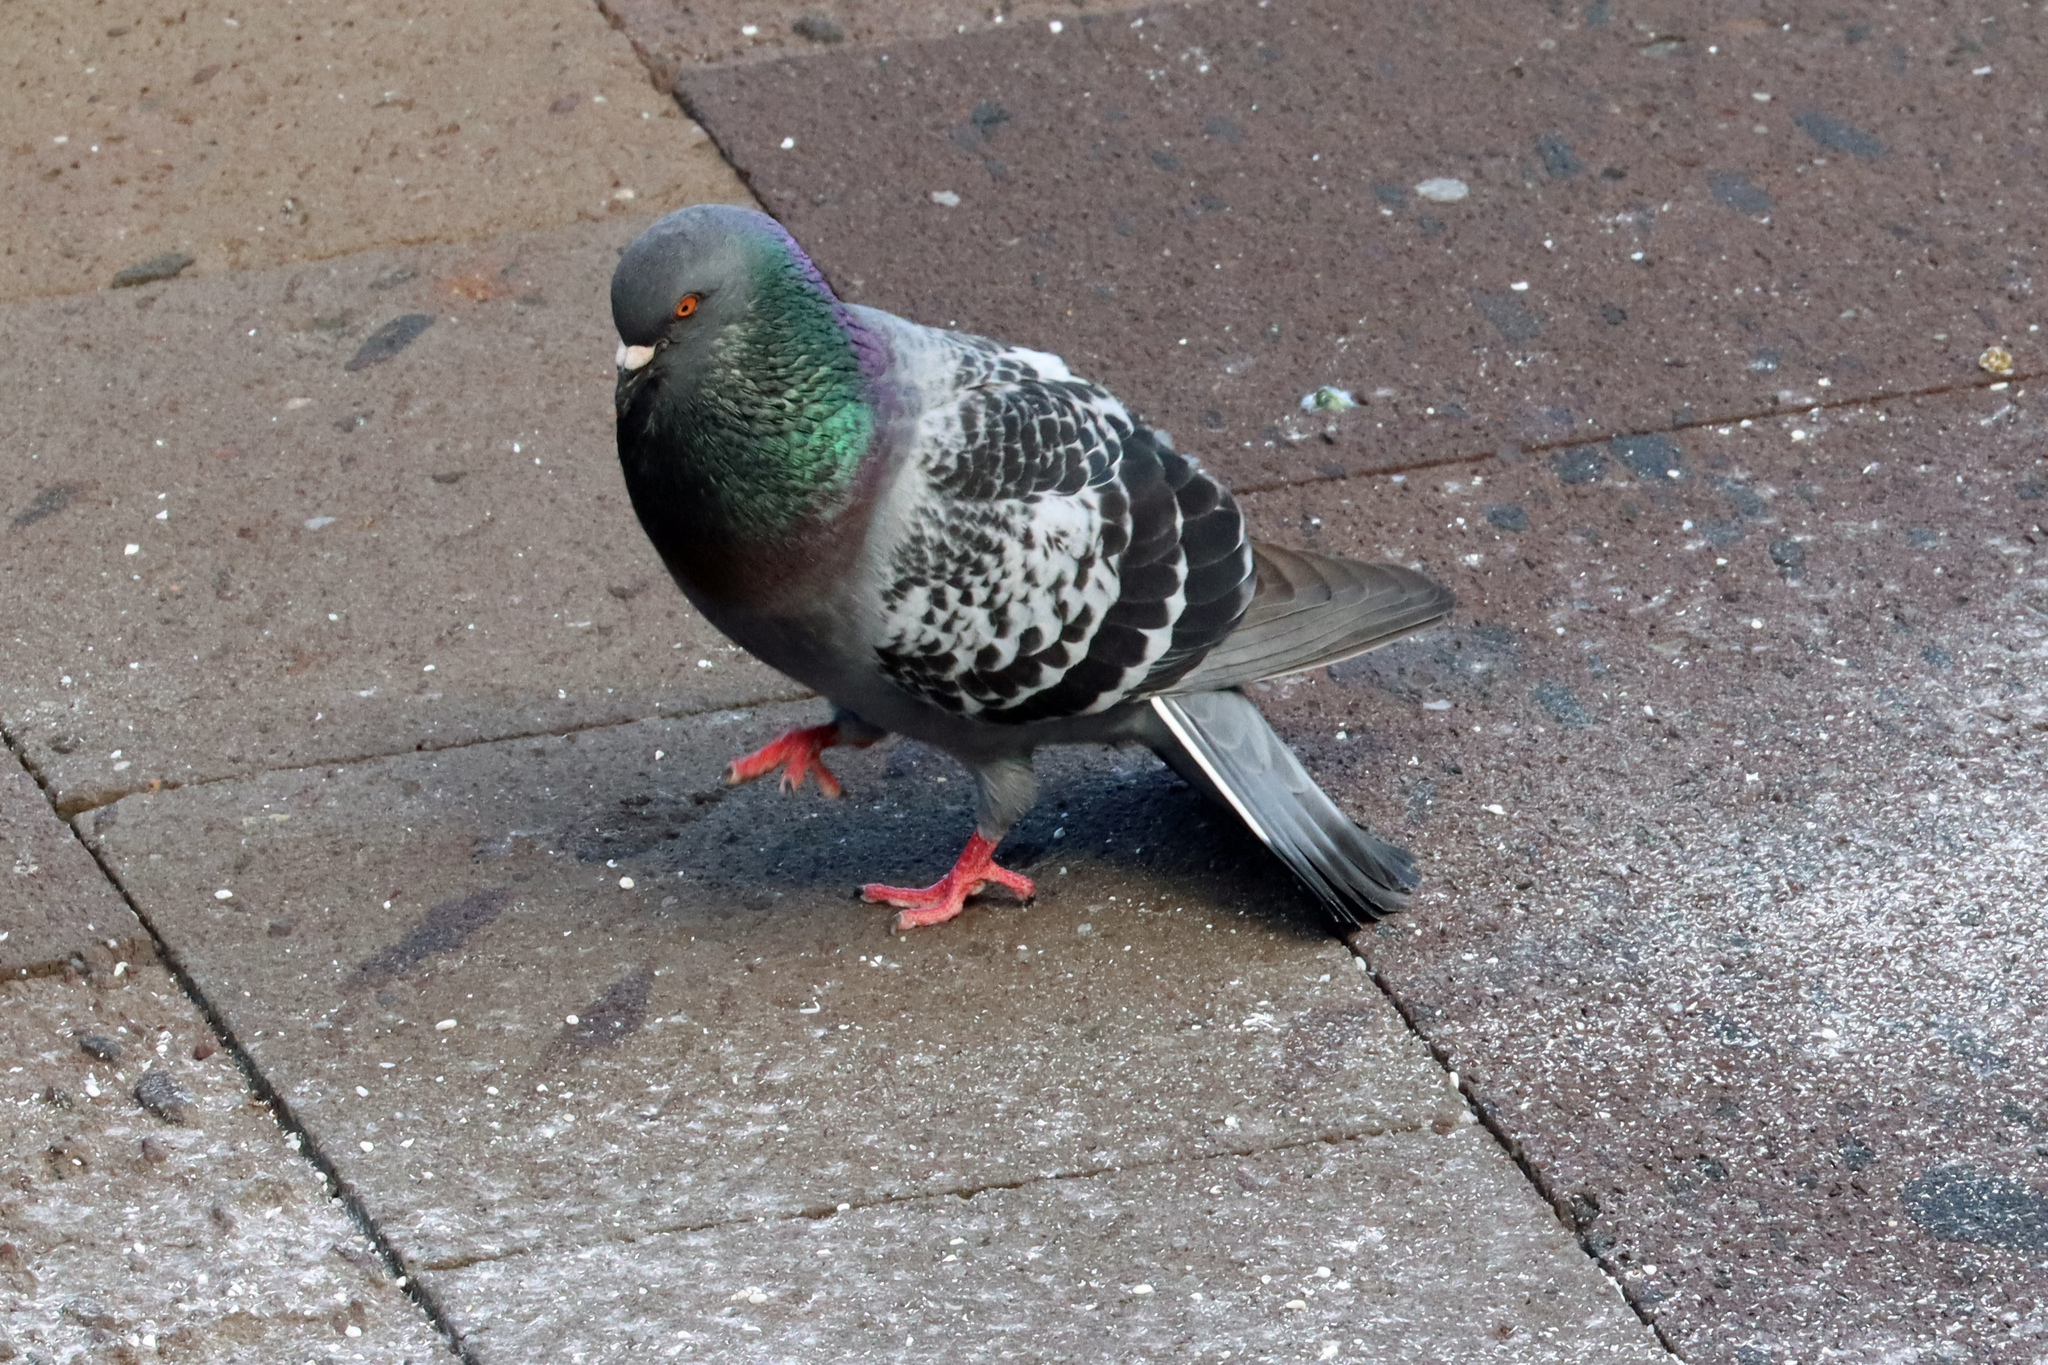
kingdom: Animalia
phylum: Chordata
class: Aves
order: Columbiformes
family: Columbidae
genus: Columba
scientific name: Columba livia
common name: Rock pigeon
